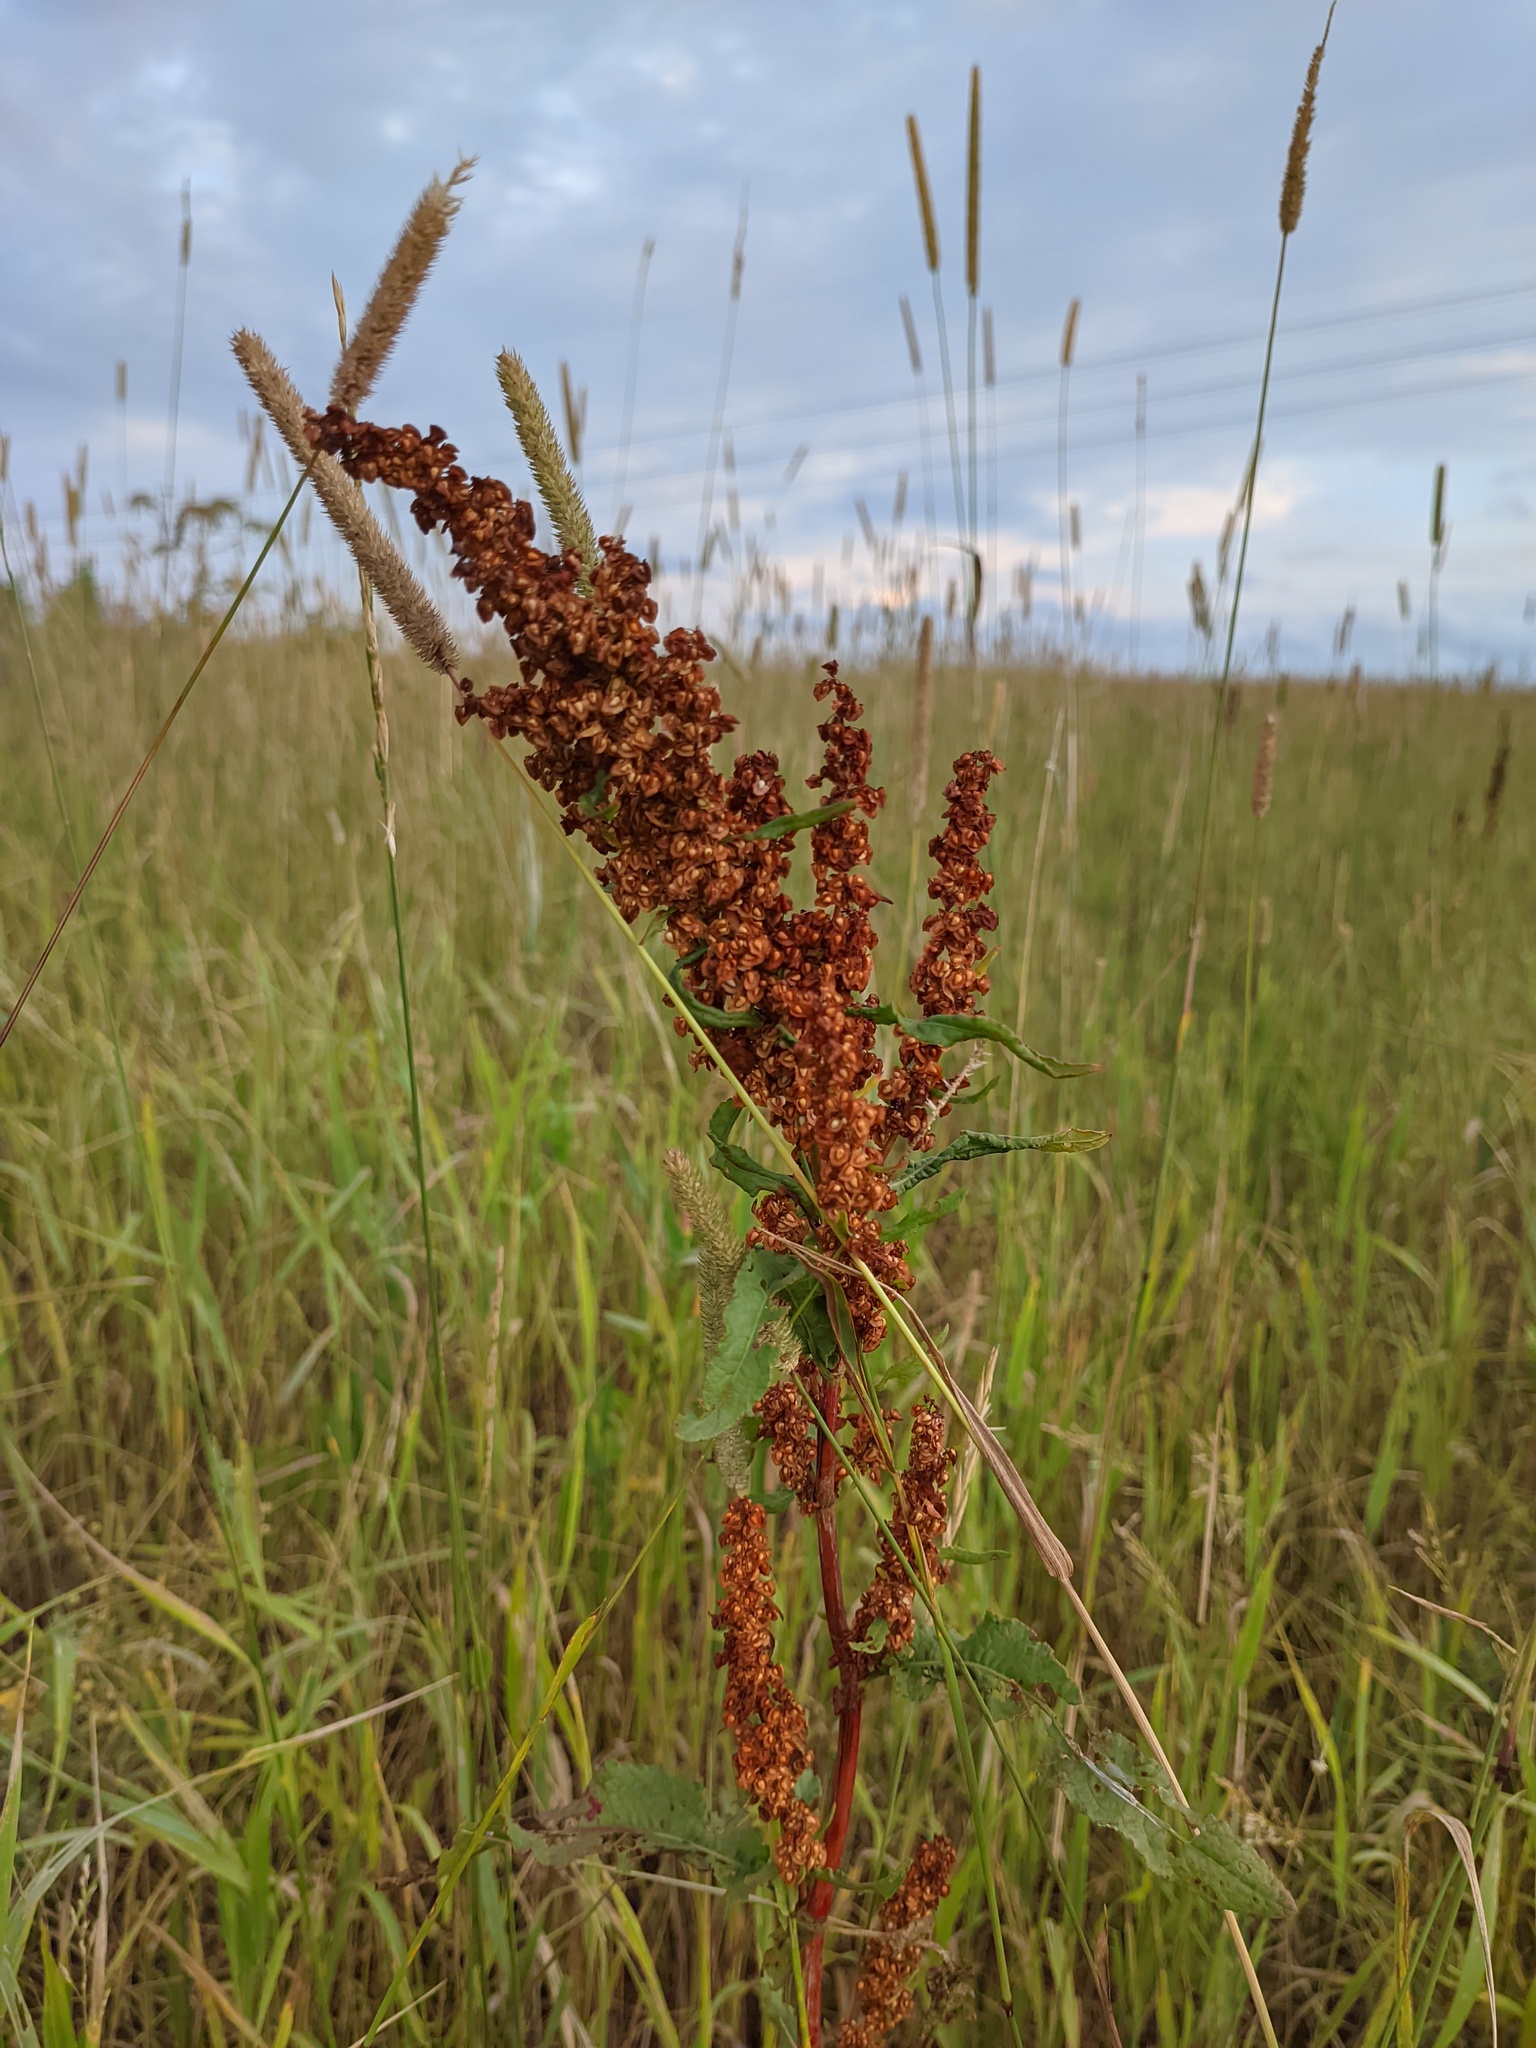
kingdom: Plantae
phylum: Tracheophyta
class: Magnoliopsida
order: Caryophyllales
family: Polygonaceae
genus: Rumex
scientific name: Rumex crispus
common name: Curled dock
